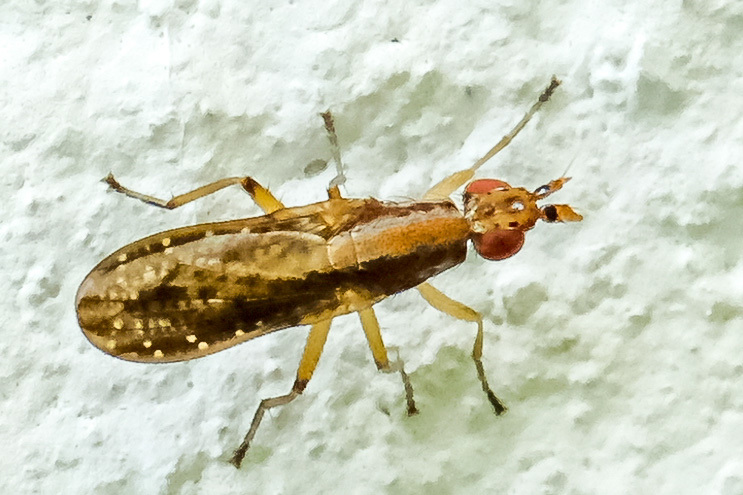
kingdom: Animalia
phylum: Arthropoda
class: Insecta
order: Diptera
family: Sciomyzidae
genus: Limnia
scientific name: Limnia shannoni
